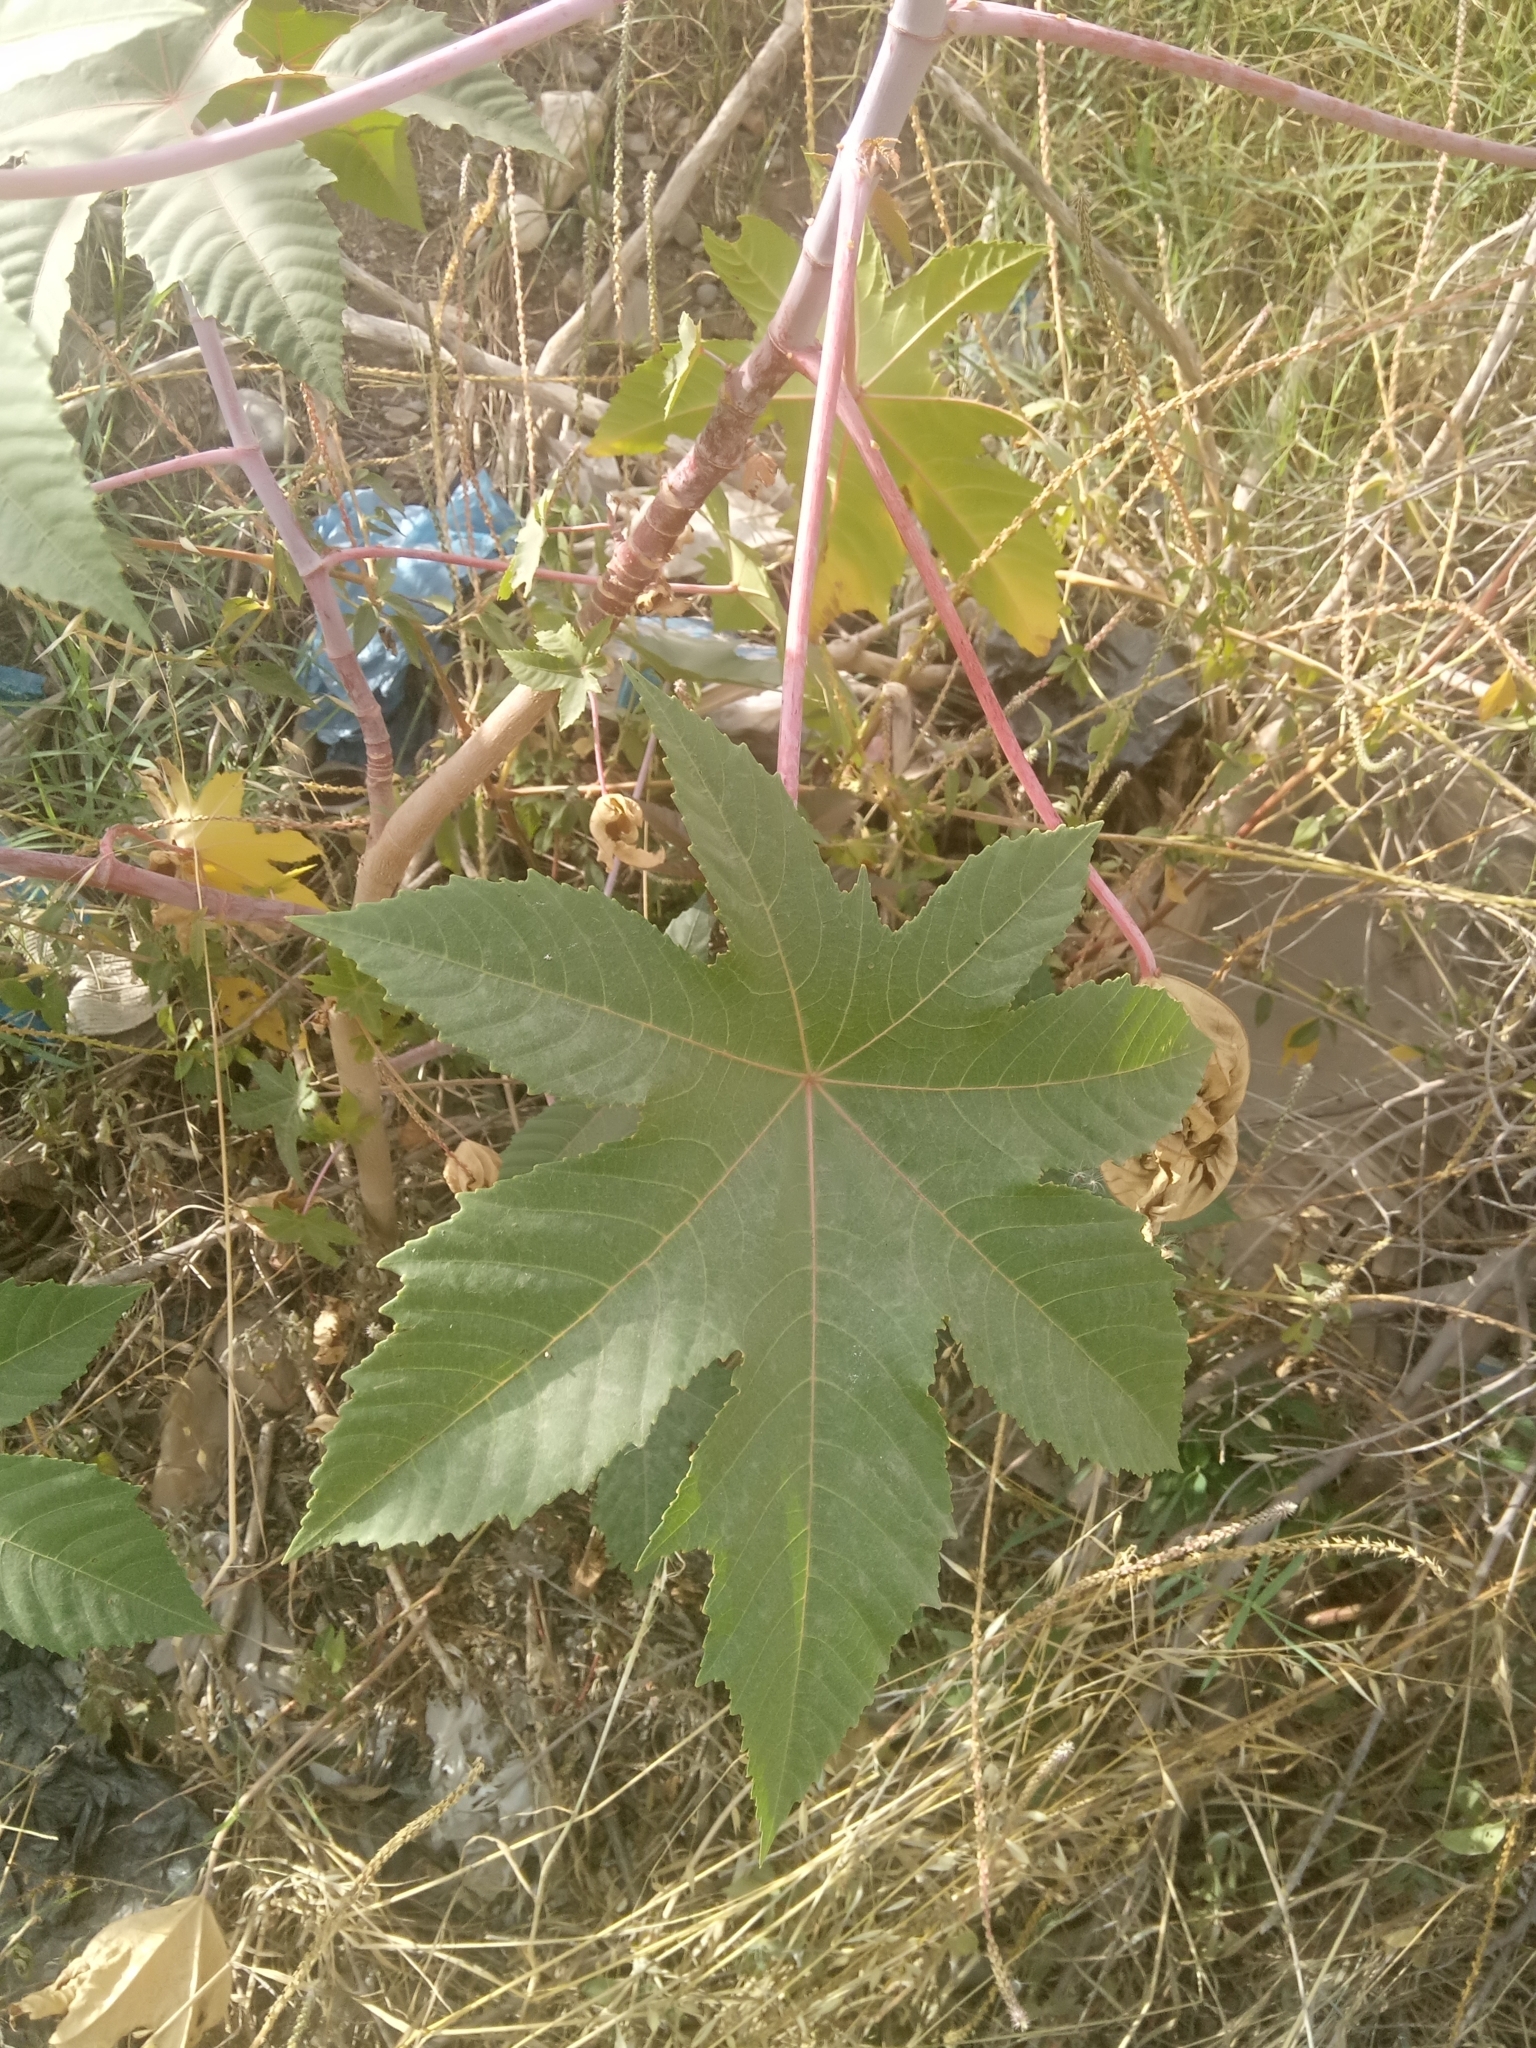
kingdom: Plantae
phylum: Tracheophyta
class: Magnoliopsida
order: Malpighiales
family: Euphorbiaceae
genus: Ricinus
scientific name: Ricinus communis
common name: Castor-oil-plant
